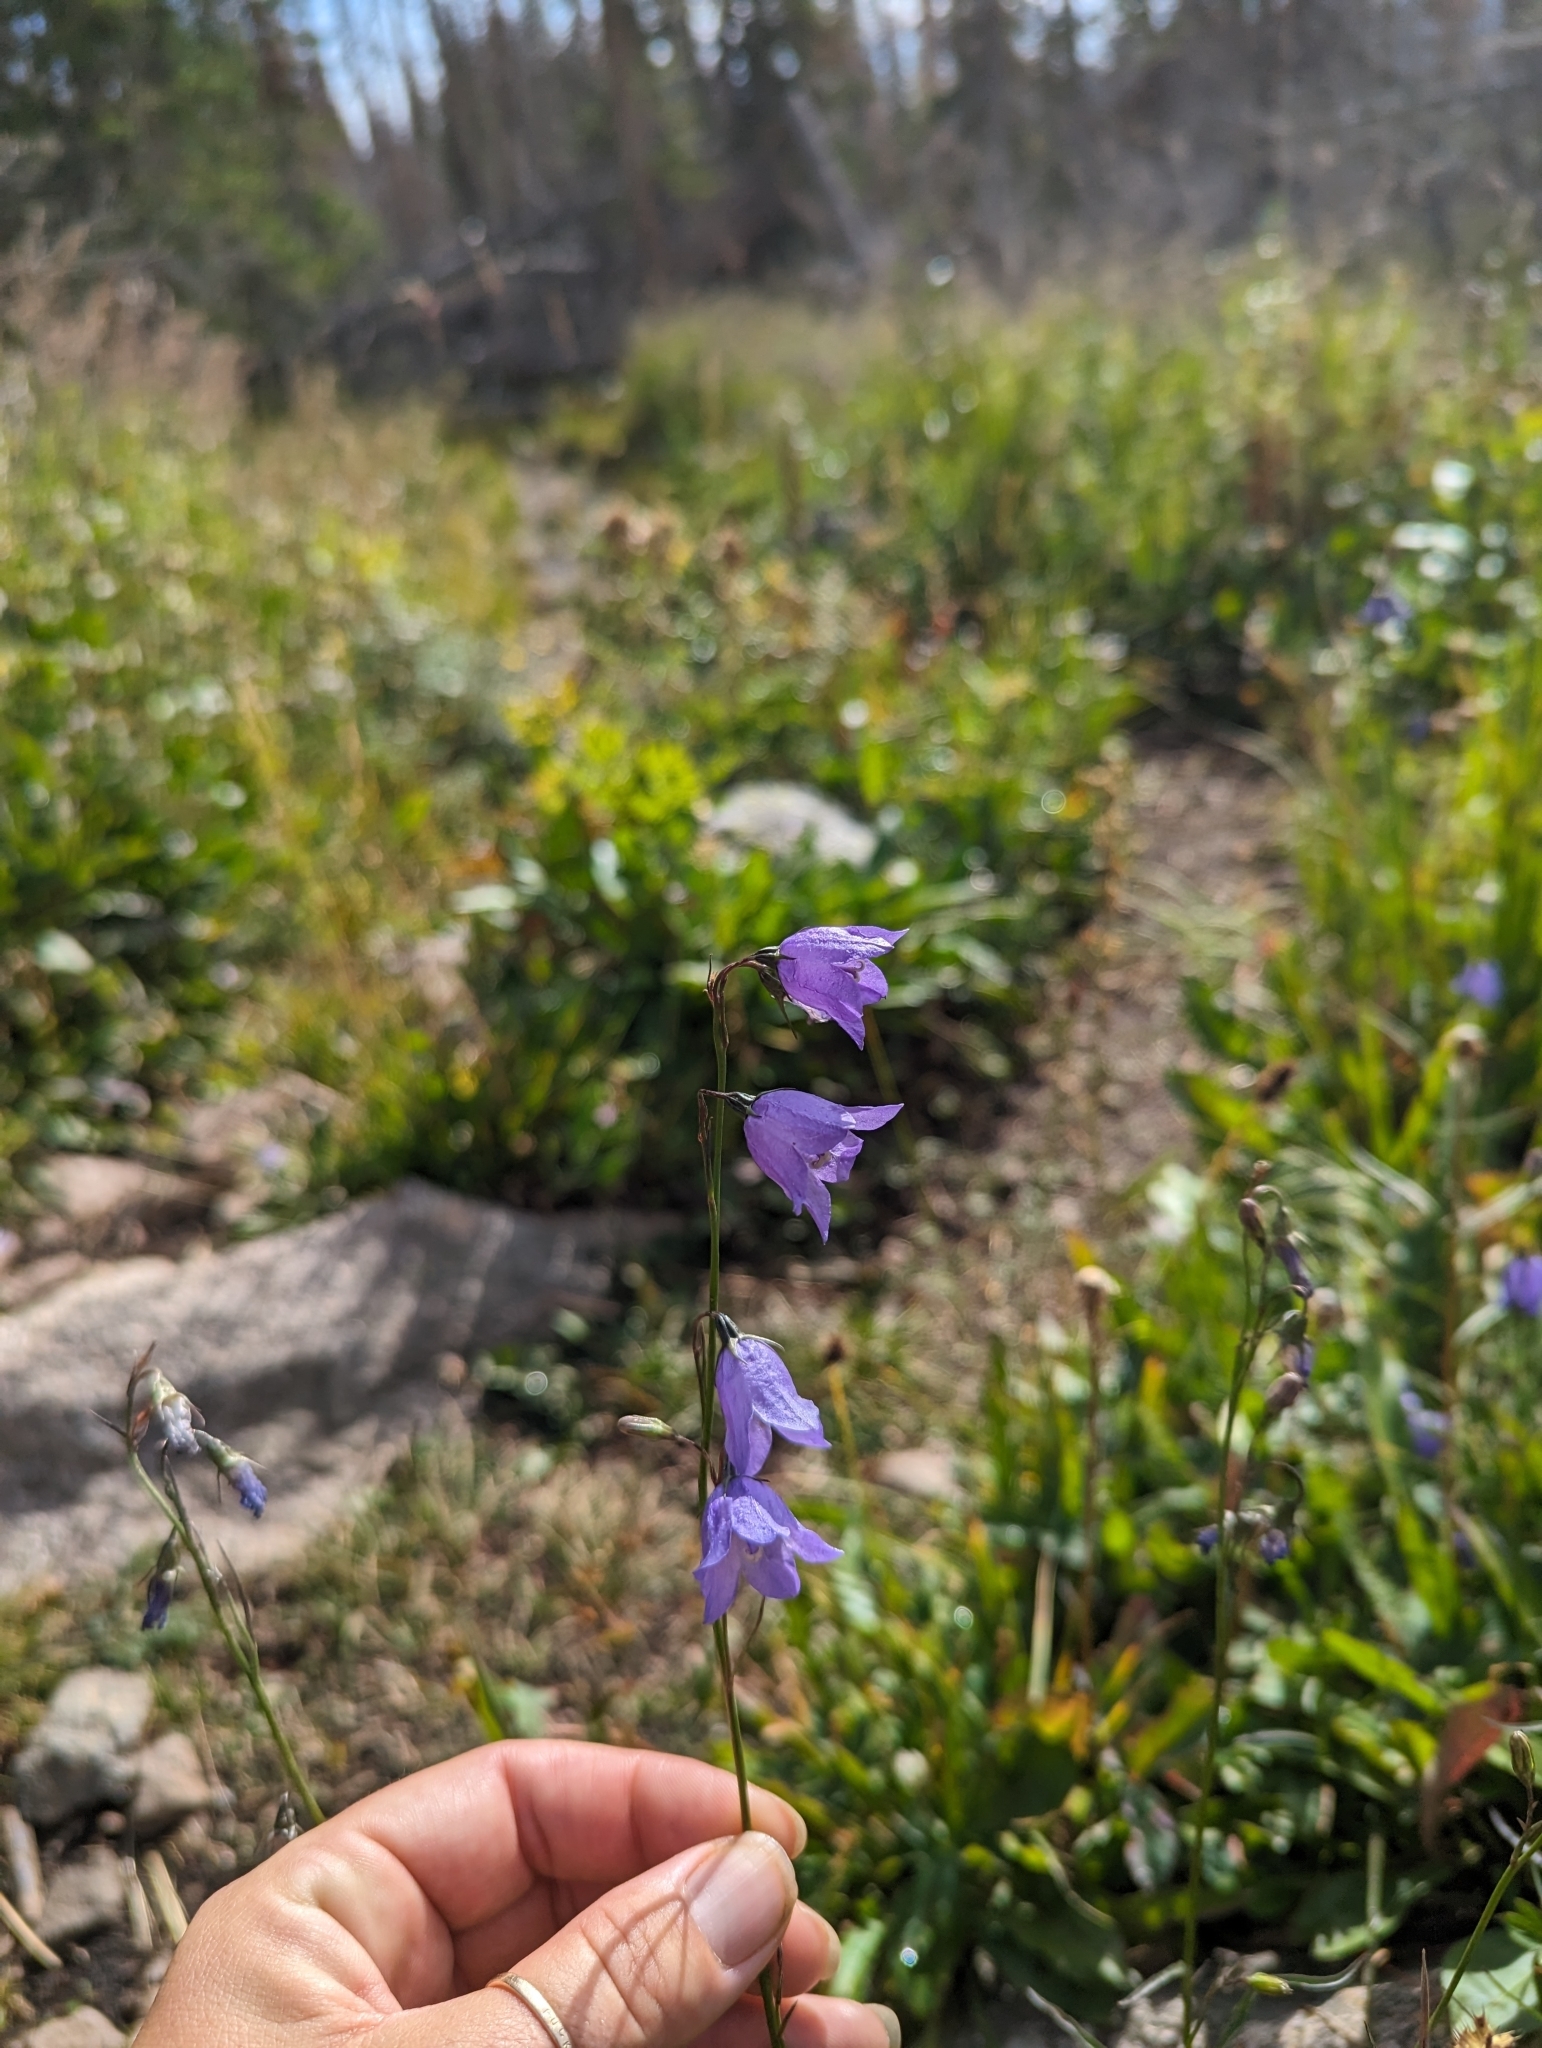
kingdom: Plantae
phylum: Tracheophyta
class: Magnoliopsida
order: Asterales
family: Campanulaceae
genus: Campanula
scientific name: Campanula petiolata
